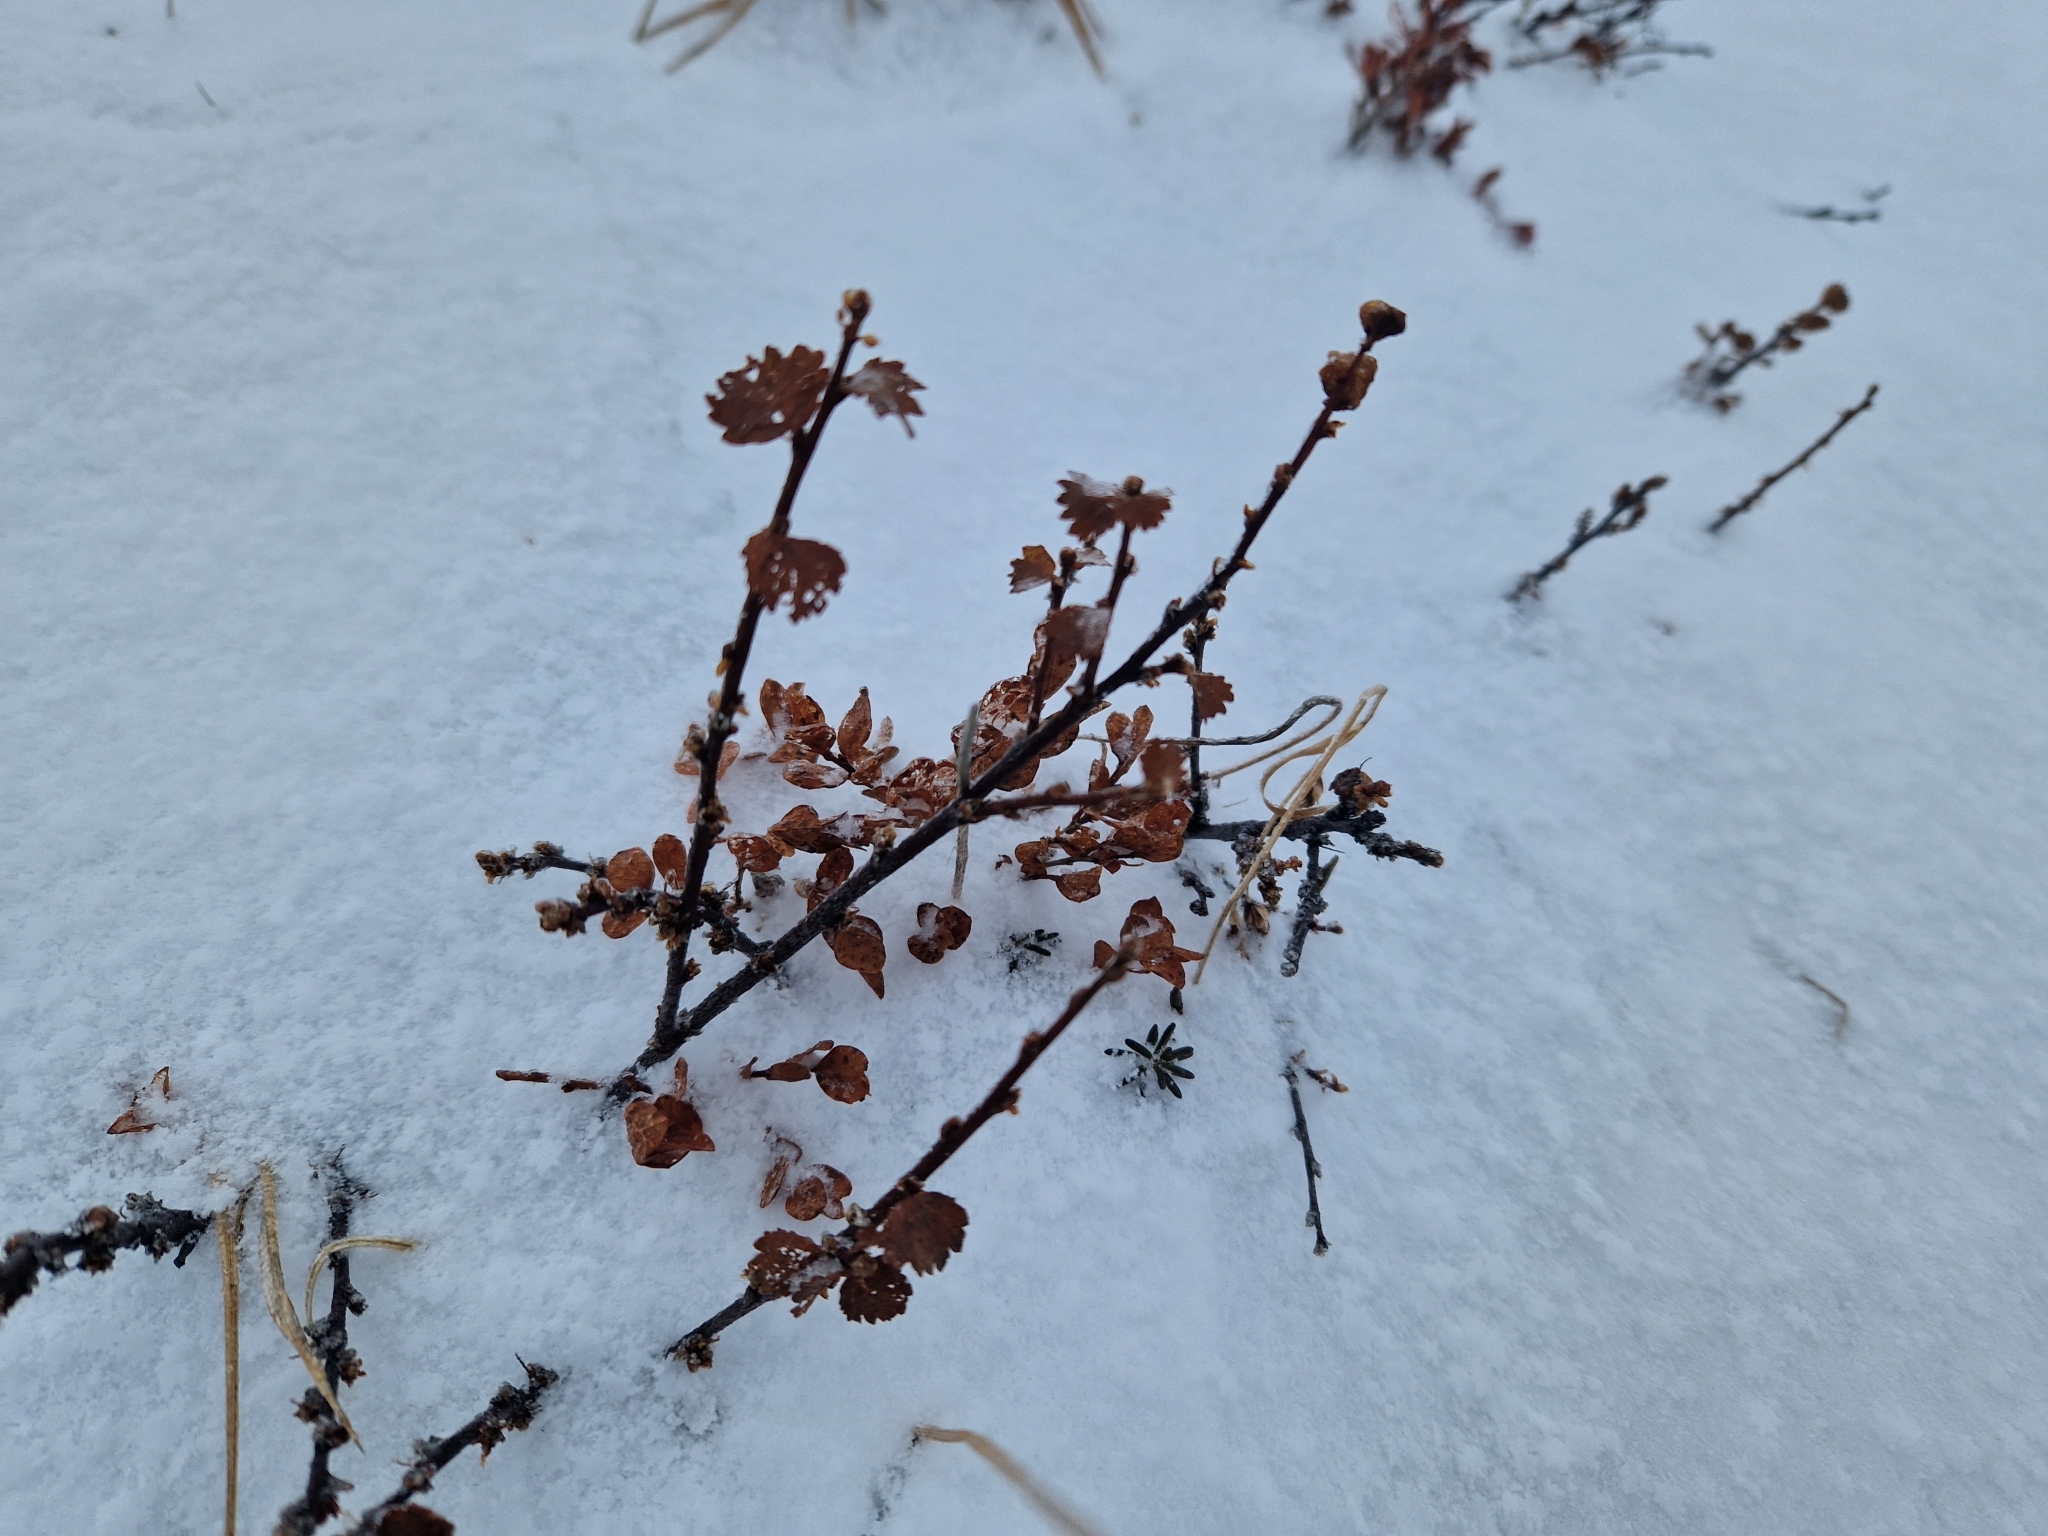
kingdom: Plantae
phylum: Tracheophyta
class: Magnoliopsida
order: Fagales
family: Betulaceae
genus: Betula
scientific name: Betula nana
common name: Arctic dwarf birch
